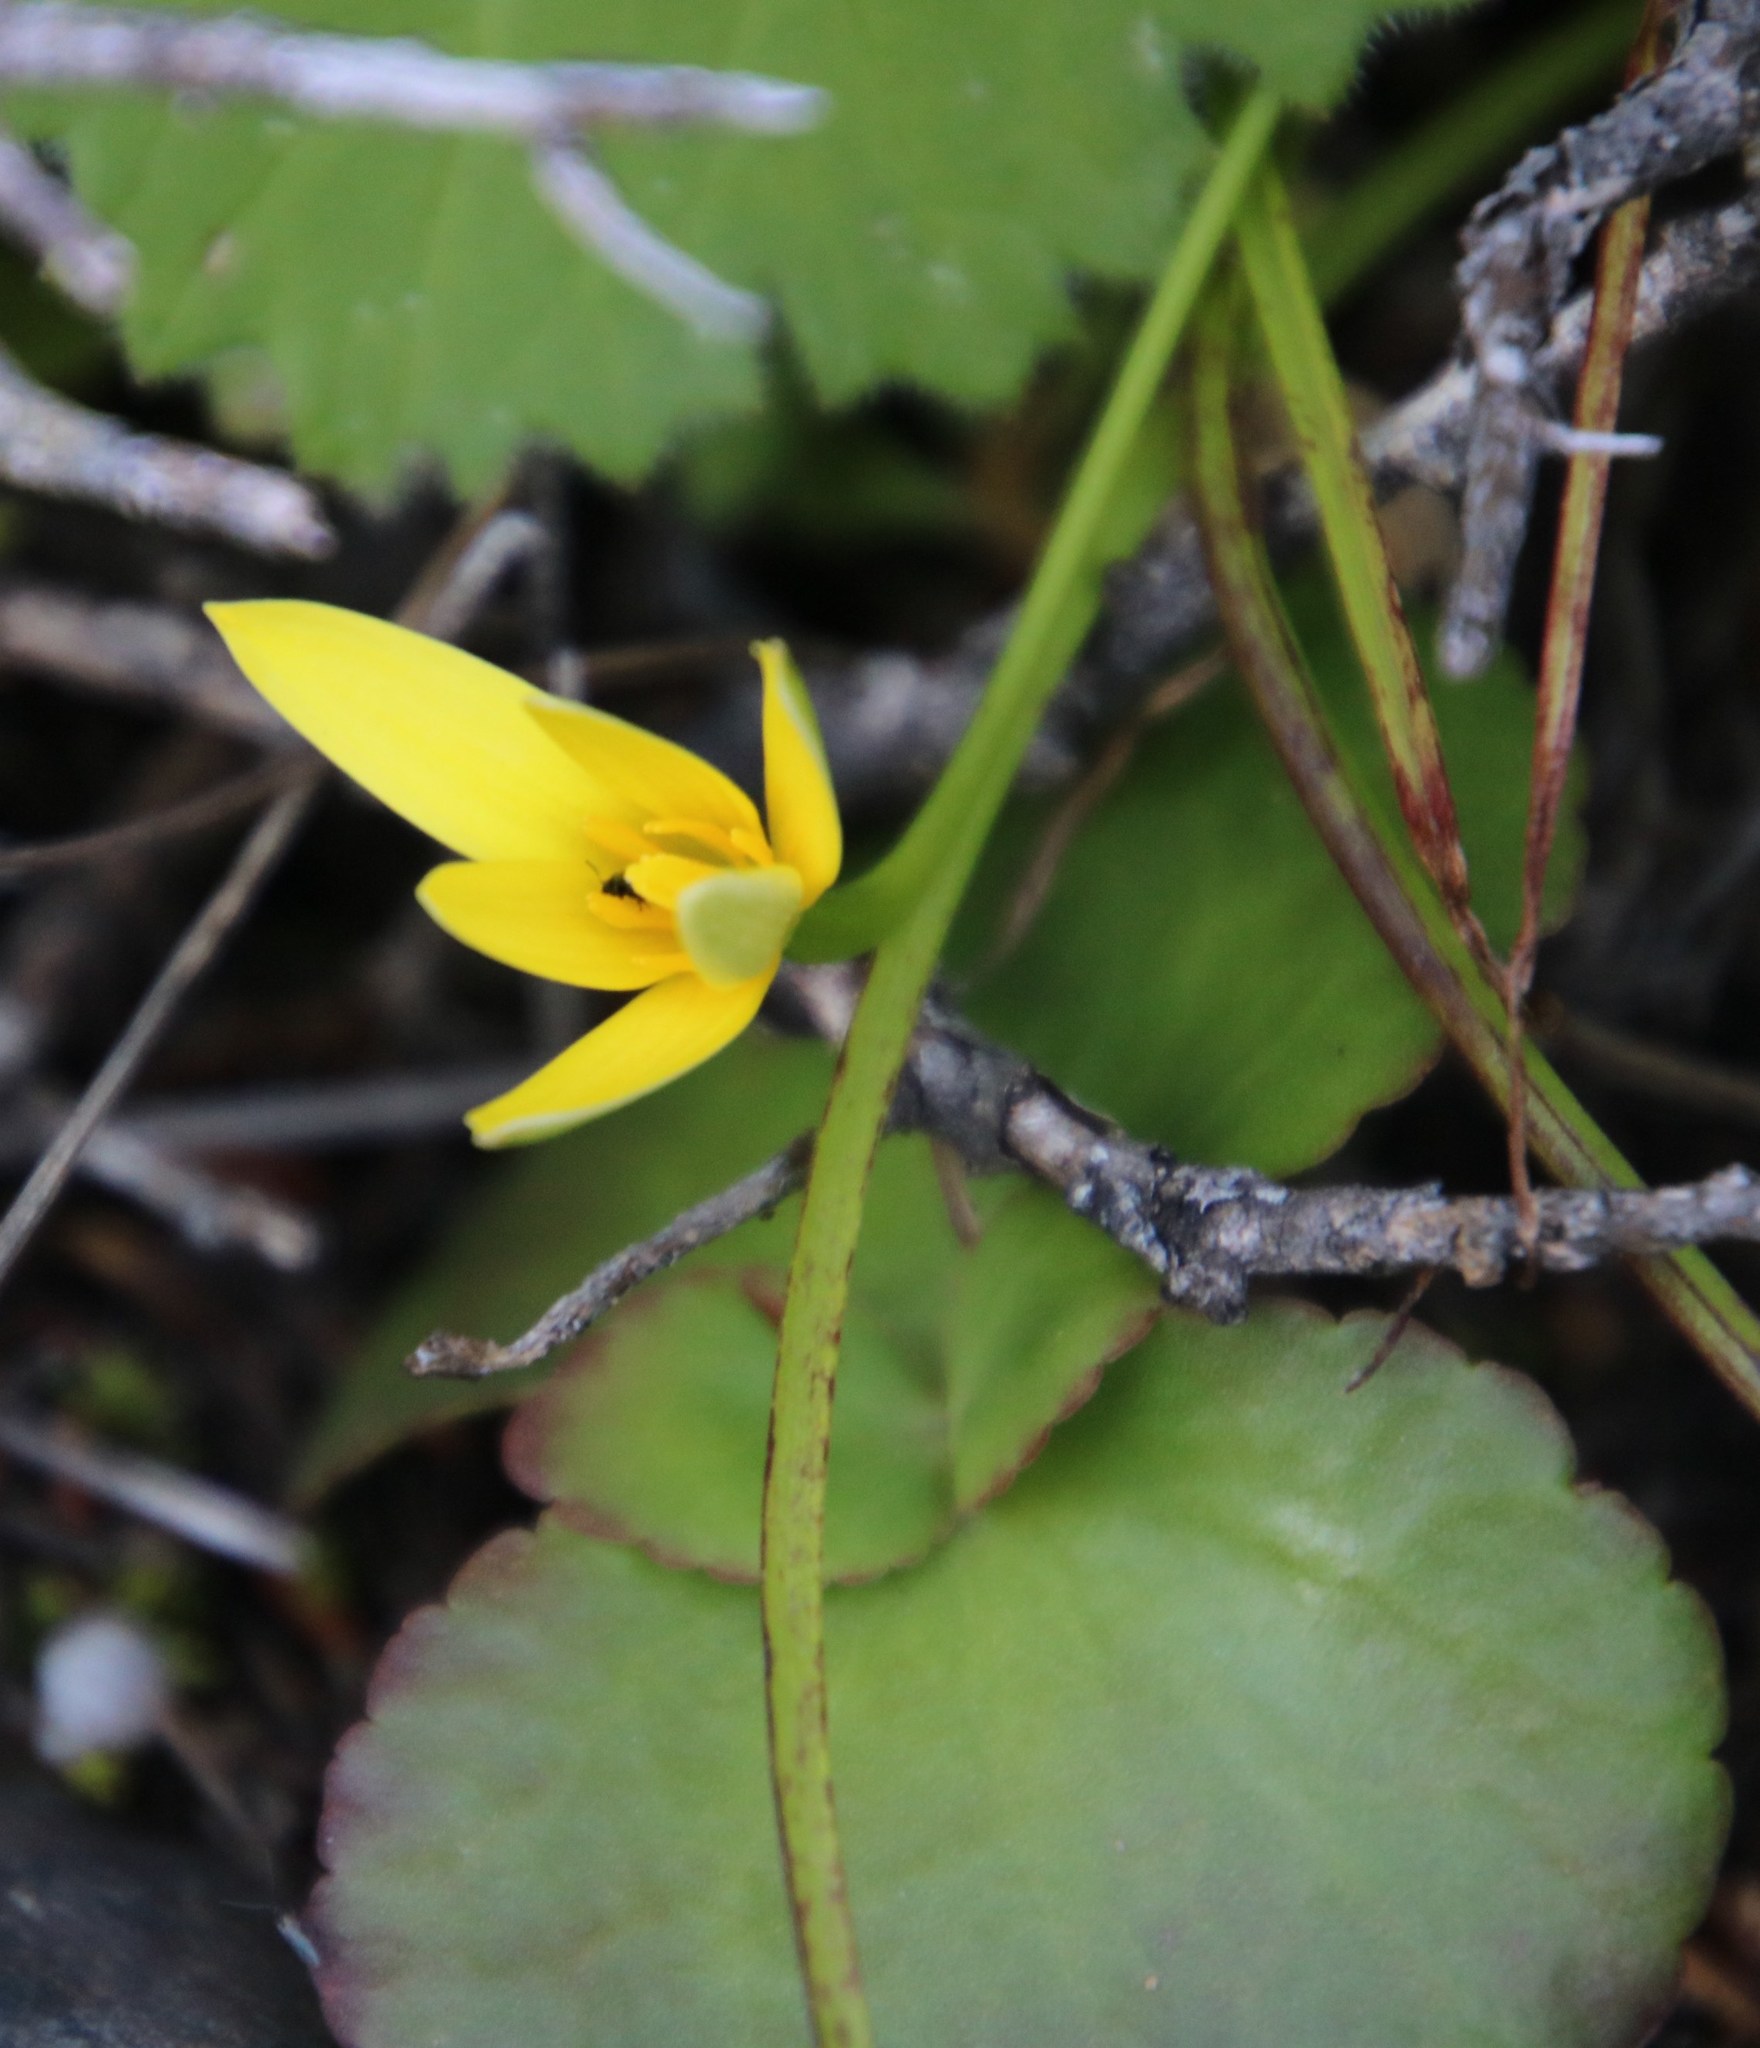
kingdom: Plantae
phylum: Tracheophyta
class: Liliopsida
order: Asparagales
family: Hypoxidaceae
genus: Pauridia
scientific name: Pauridia capensis
